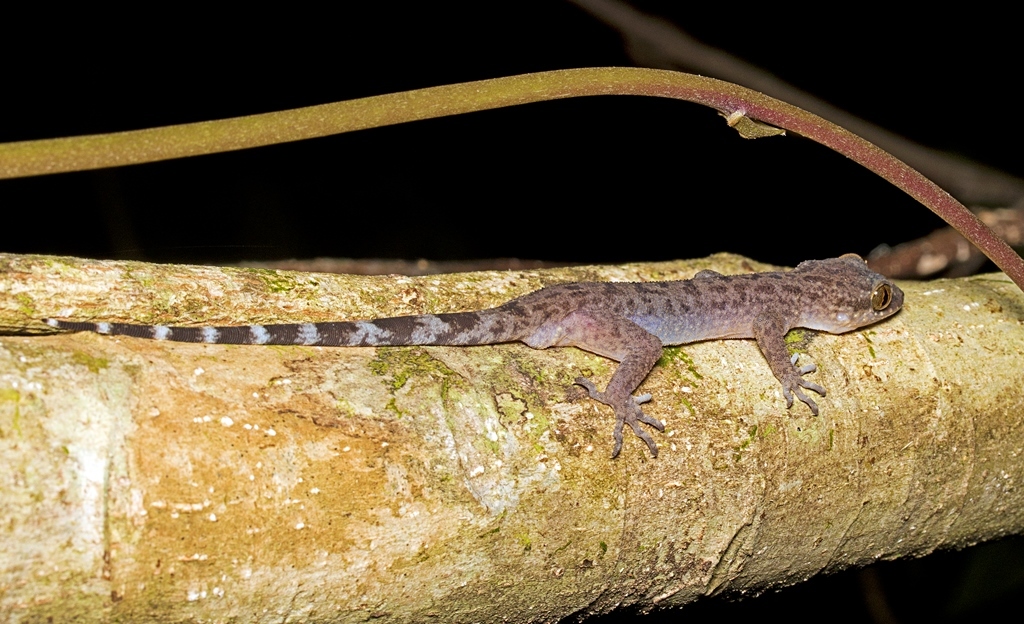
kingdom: Animalia
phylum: Chordata
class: Squamata
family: Gekkonidae
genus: Cyrtodactylus
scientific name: Cyrtodactylus miriensis
